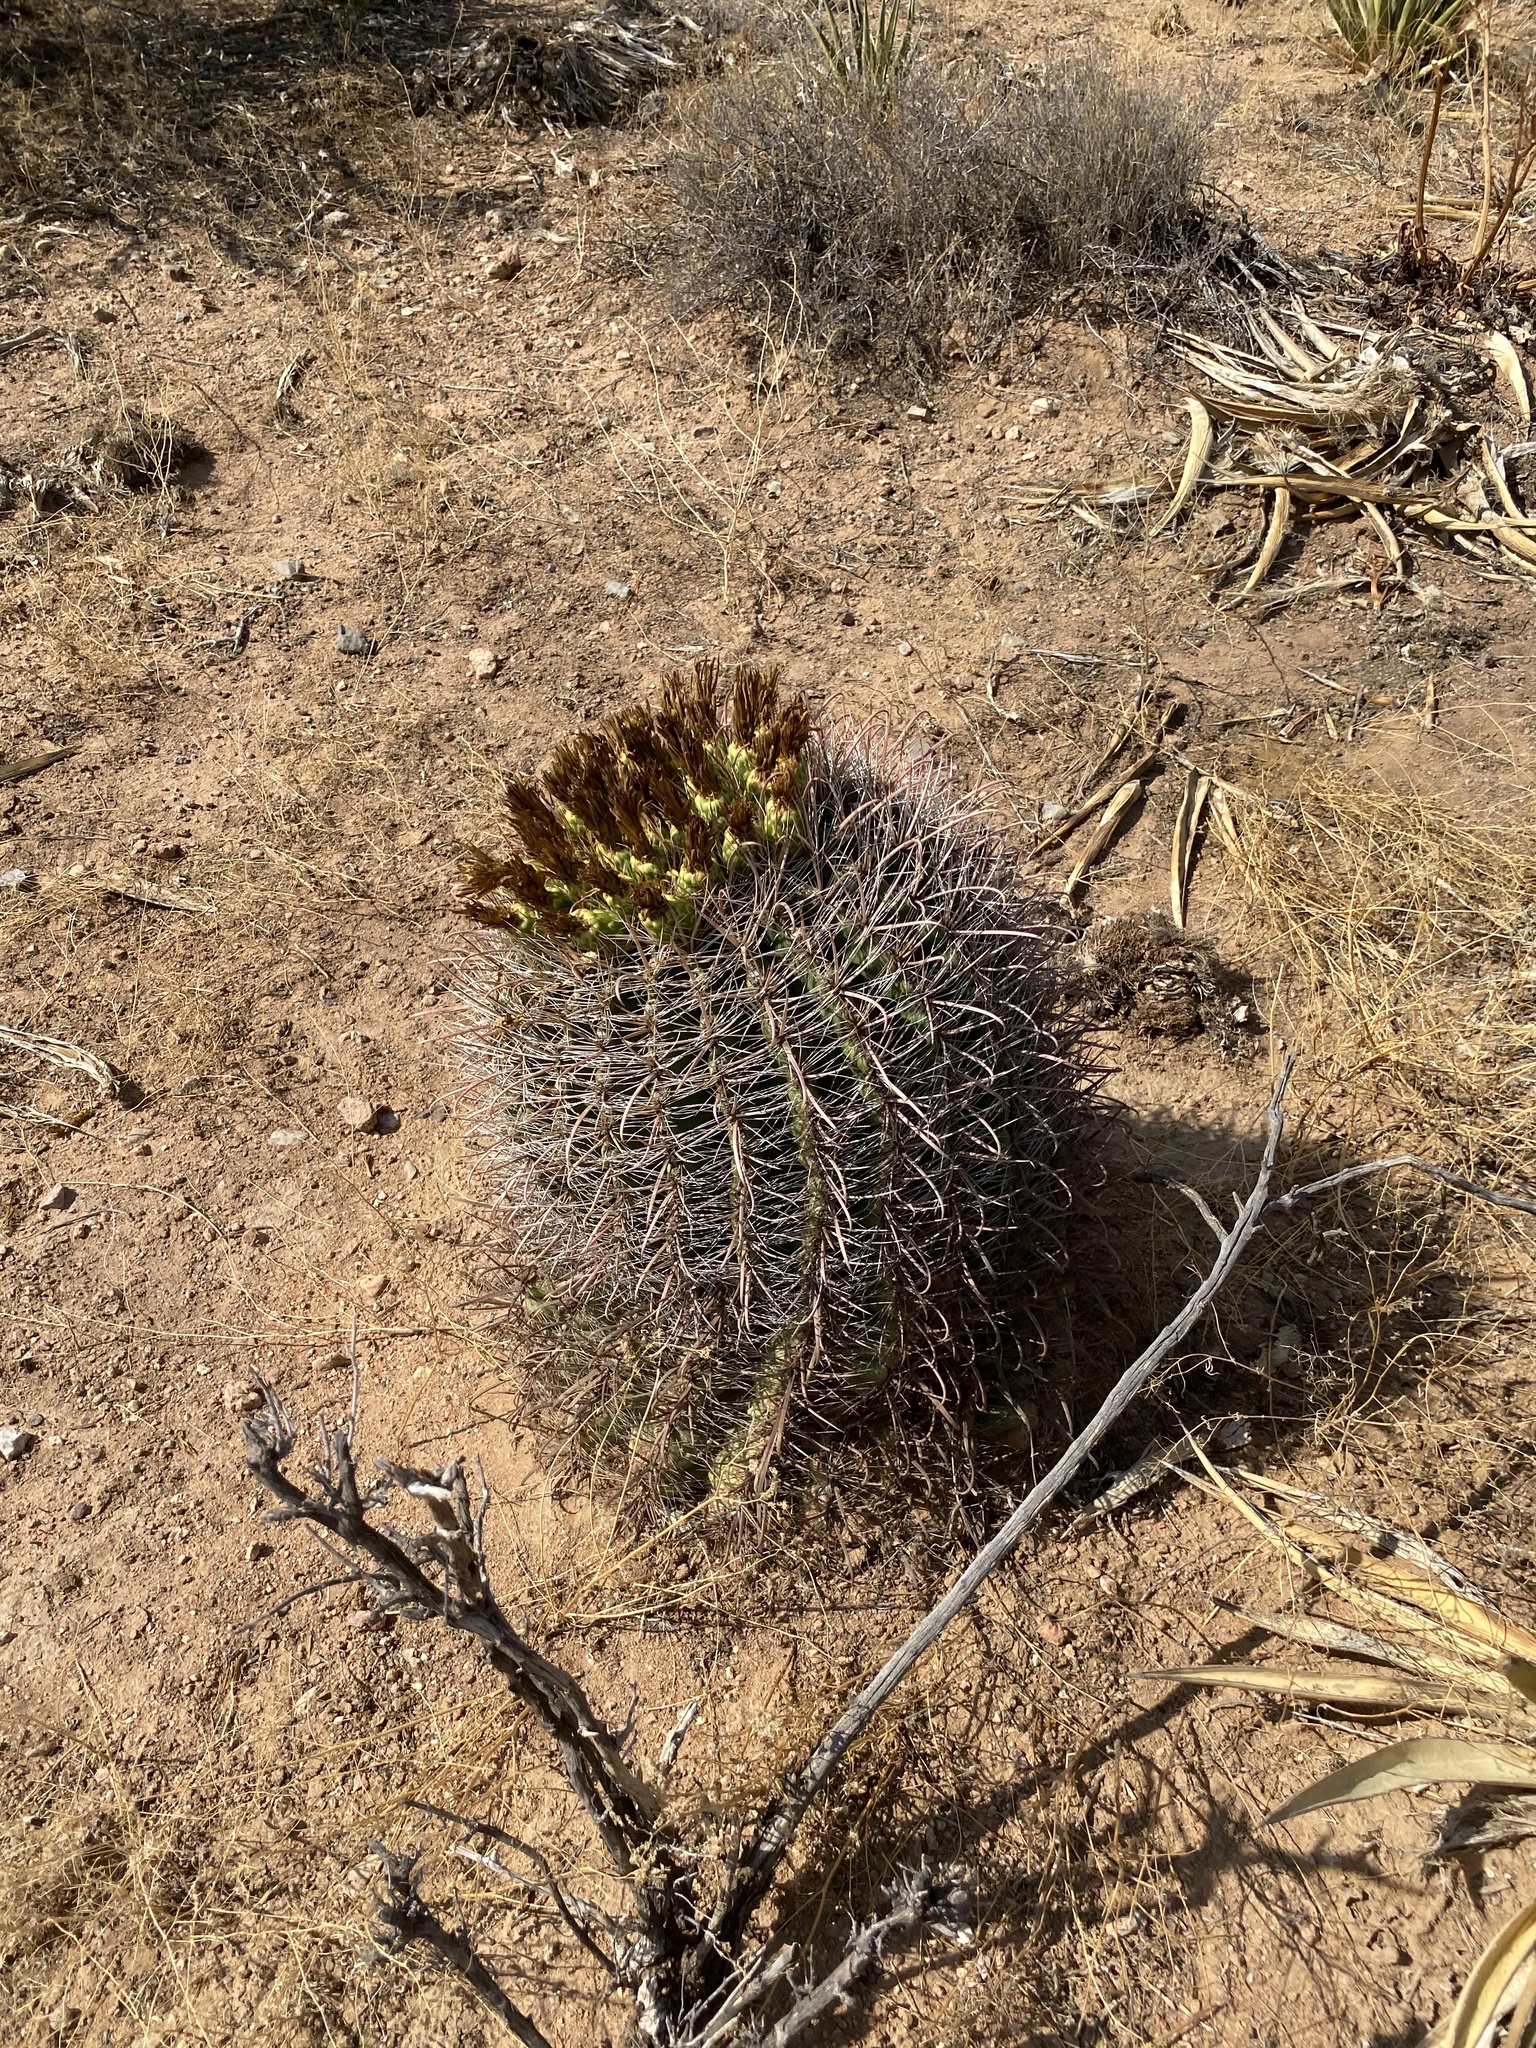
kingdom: Plantae
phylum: Tracheophyta
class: Magnoliopsida
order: Caryophyllales
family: Cactaceae
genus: Ferocactus
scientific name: Ferocactus wislizeni
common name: Candy barrel cactus
